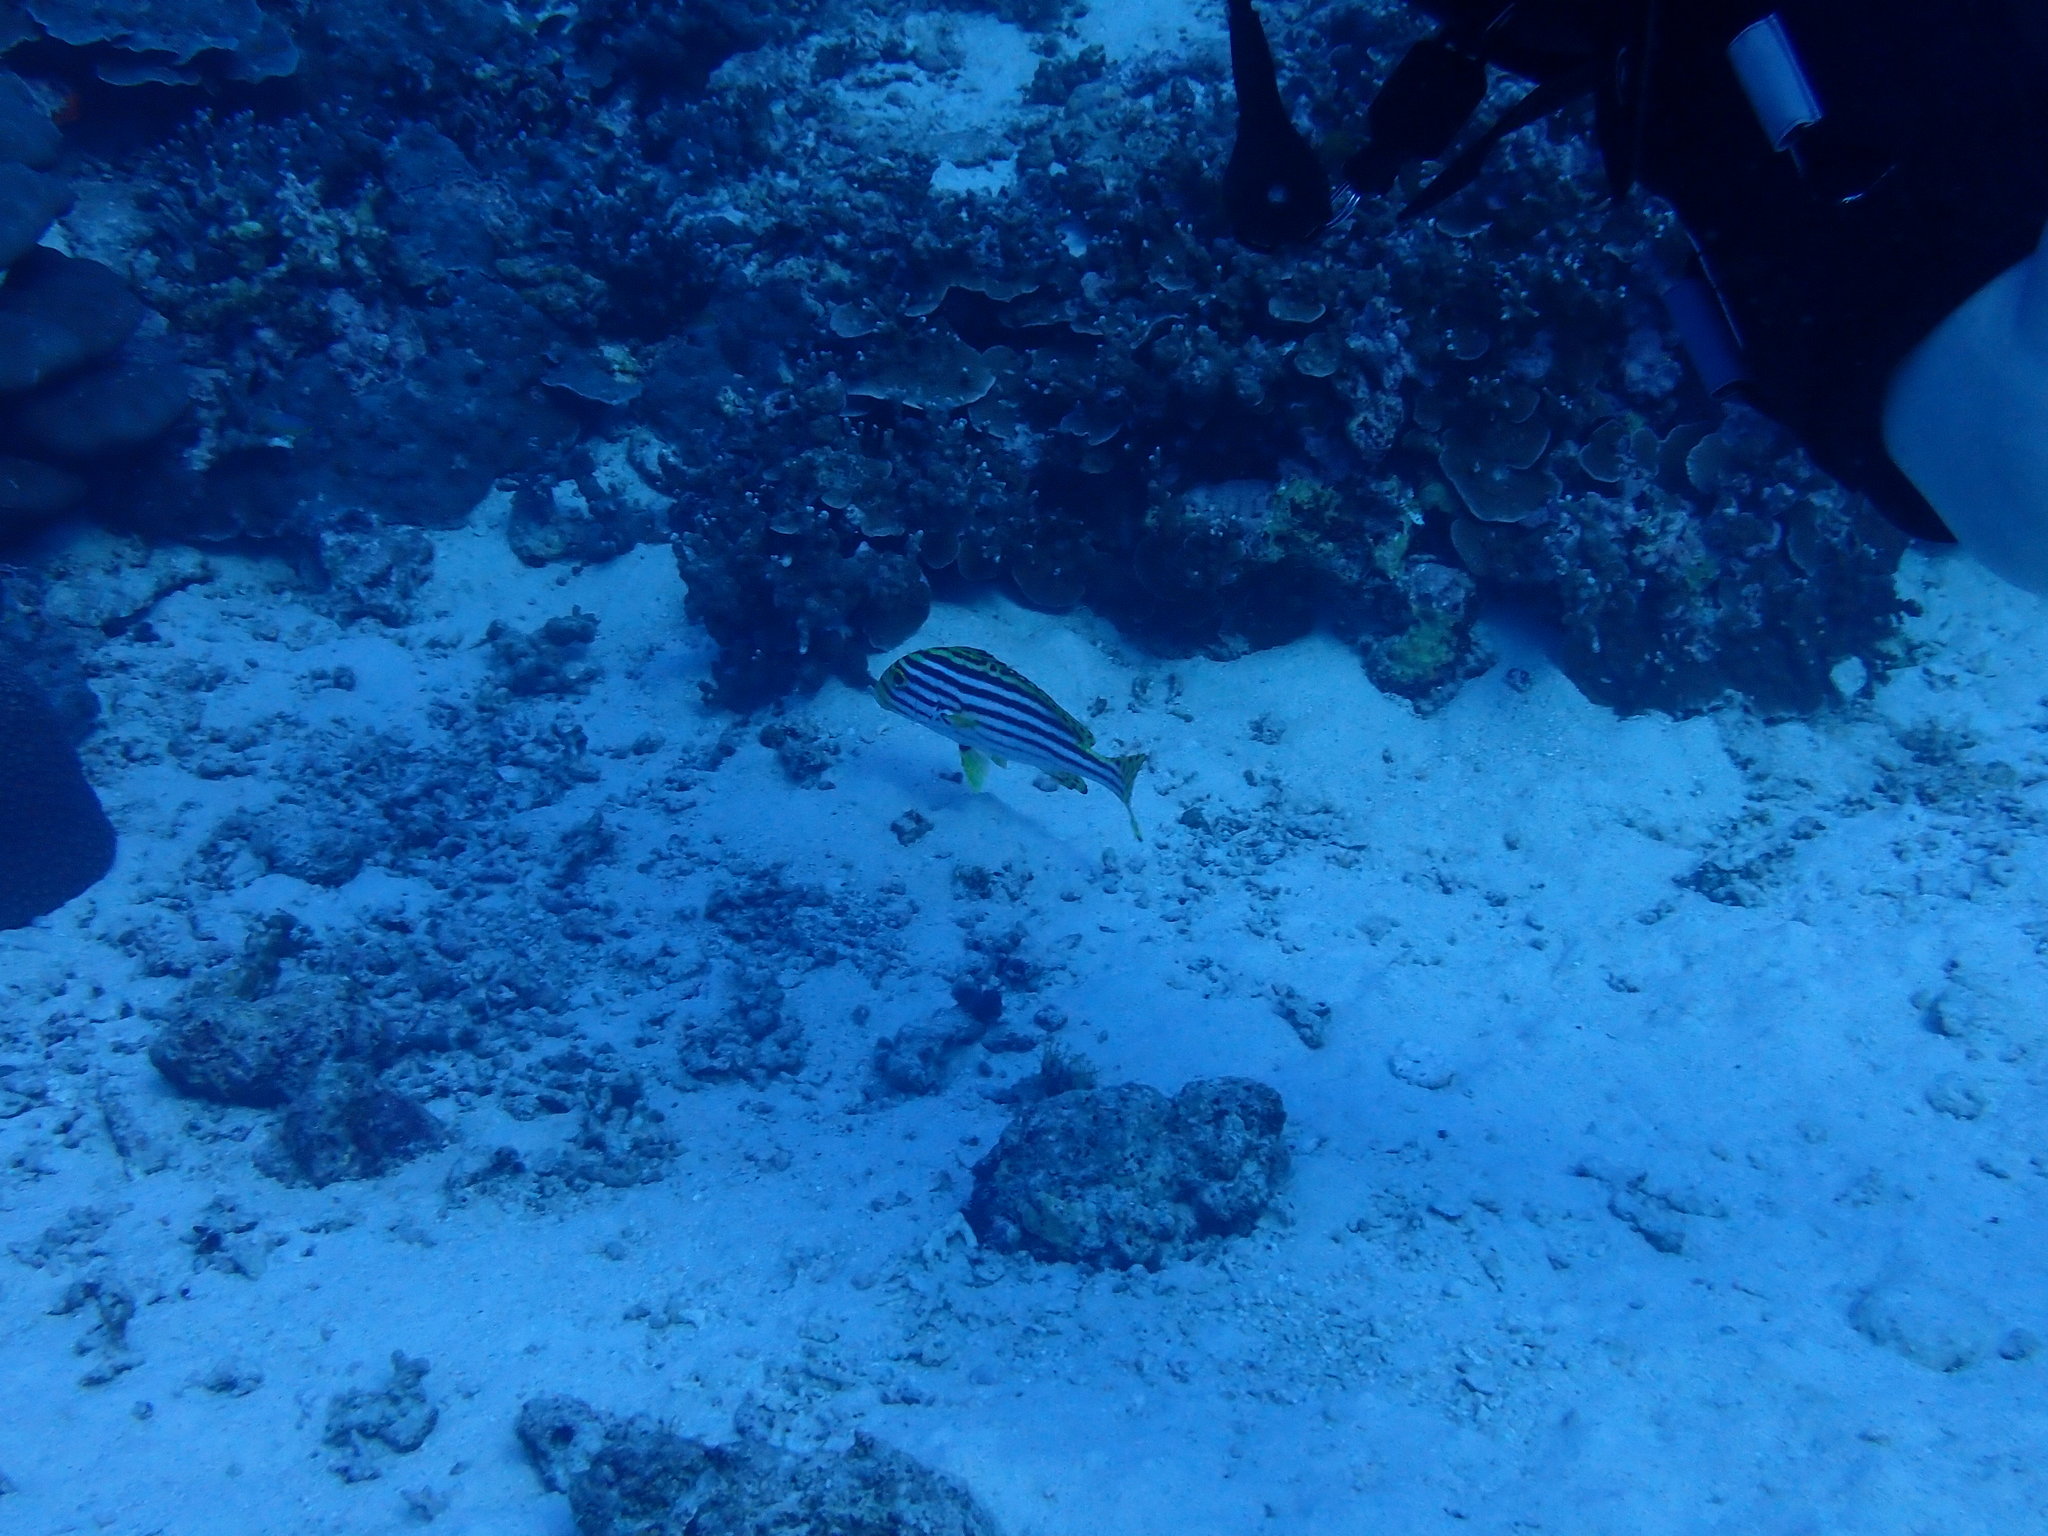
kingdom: Animalia
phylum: Chordata
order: Perciformes
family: Haemulidae
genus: Plectorhinchus
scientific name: Plectorhinchus vittatus
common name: Oriental sweetlips
